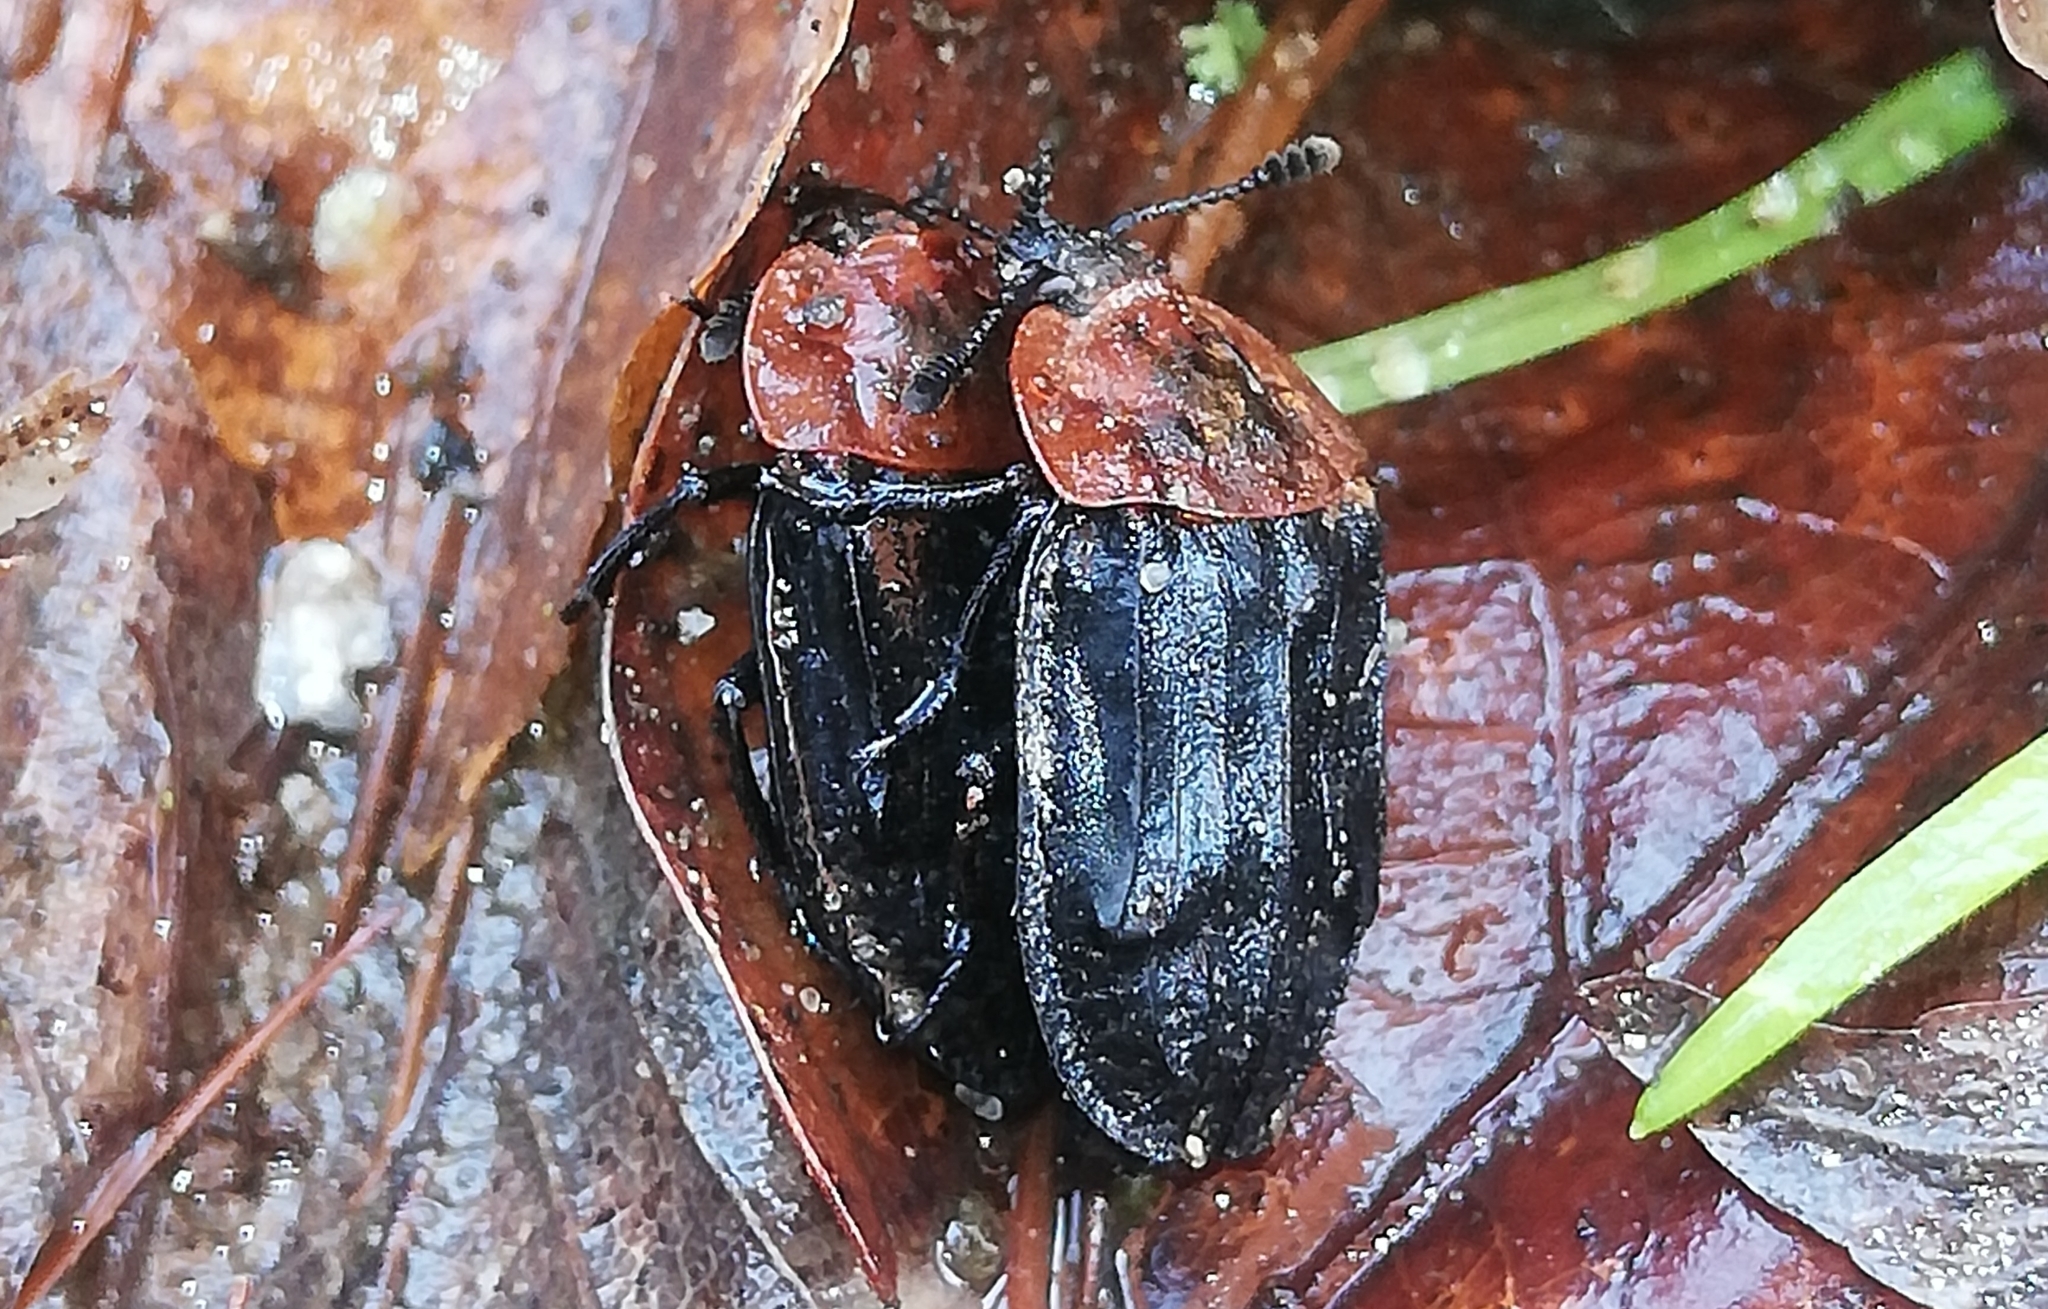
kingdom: Animalia
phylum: Arthropoda
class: Insecta
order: Coleoptera
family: Staphylinidae
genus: Oiceoptoma
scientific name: Oiceoptoma thoracicum
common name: Red-breasted carrion beetle
